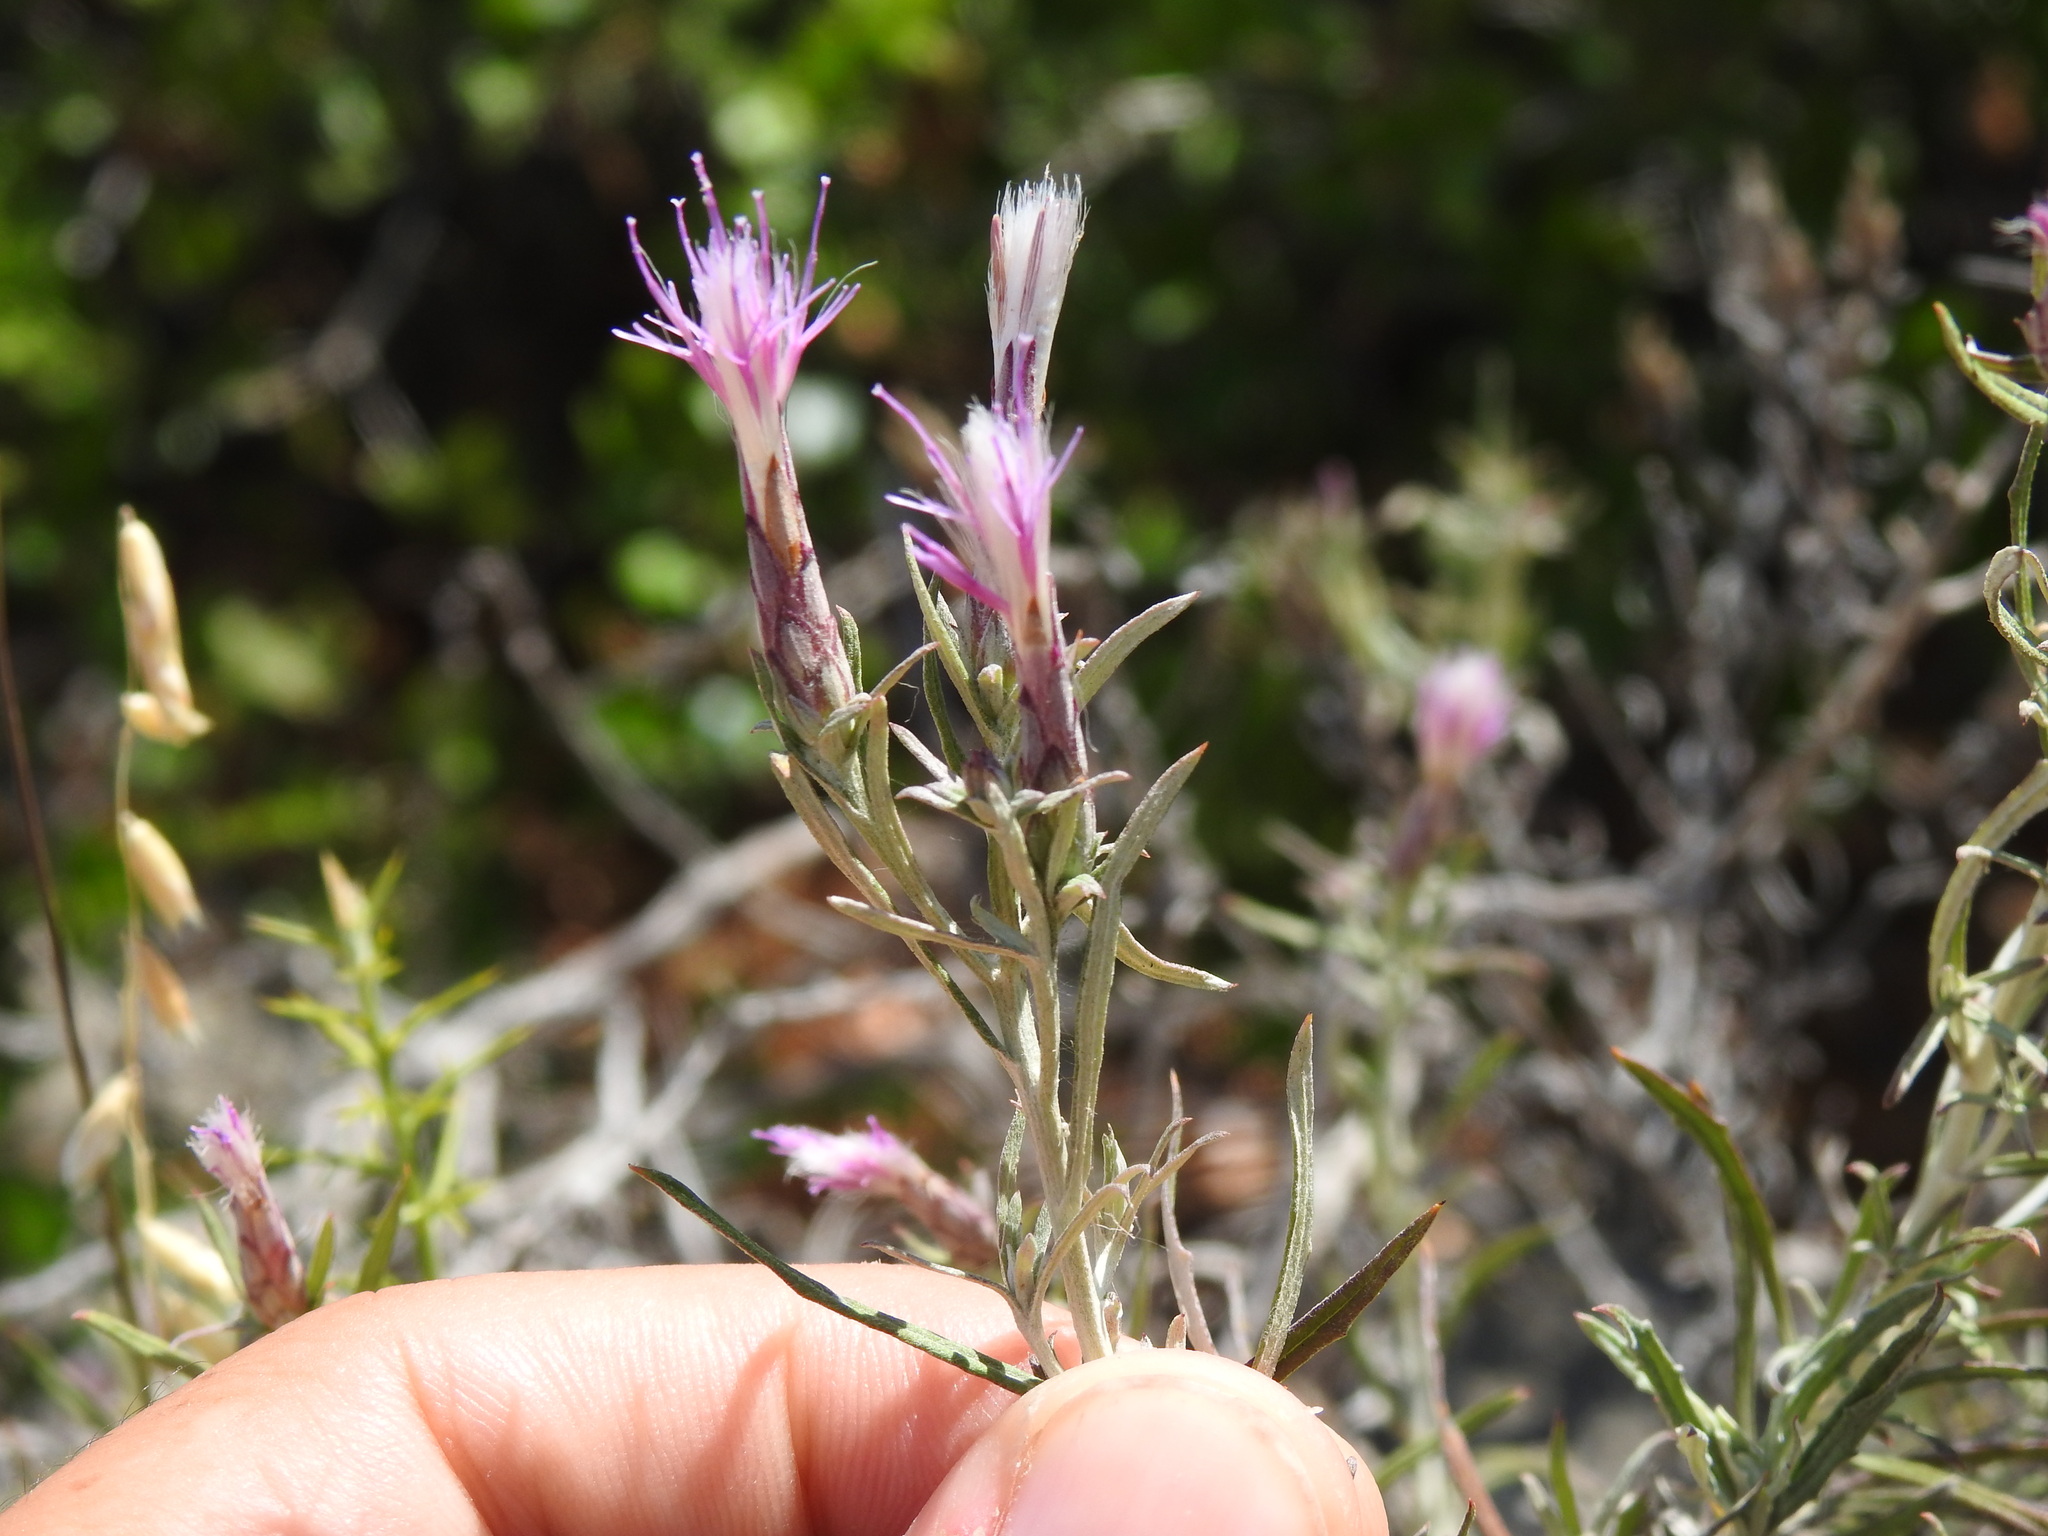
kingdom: Plantae
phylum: Tracheophyta
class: Magnoliopsida
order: Asterales
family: Asteraceae
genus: Staehelina
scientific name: Staehelina dubia
